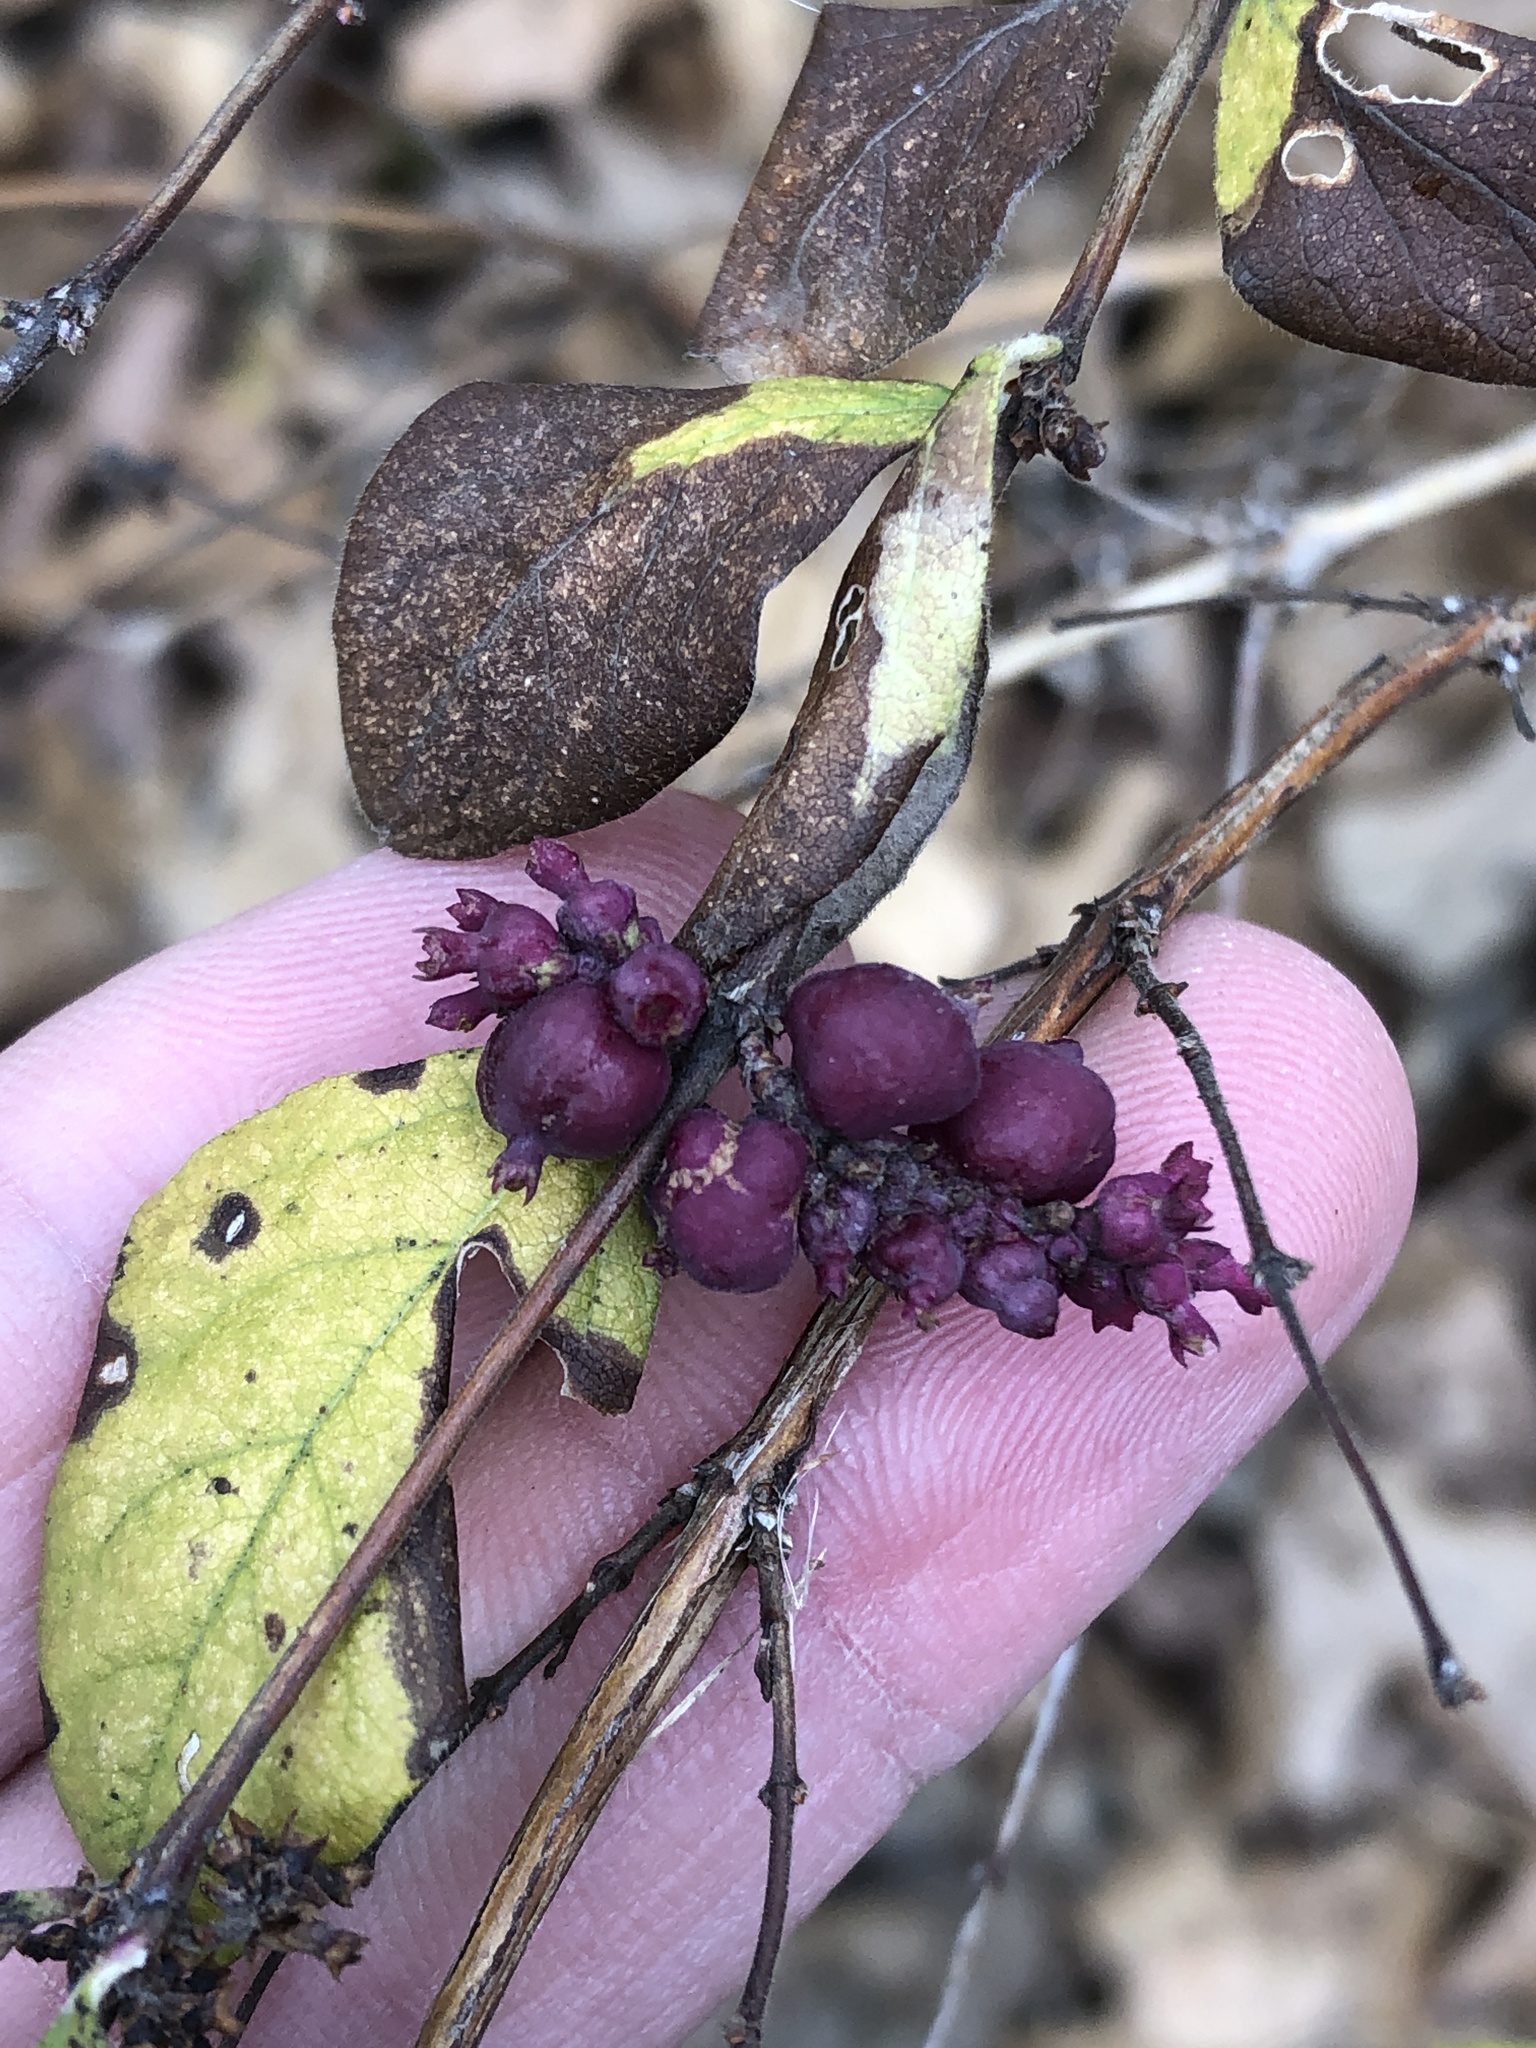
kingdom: Plantae
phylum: Tracheophyta
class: Magnoliopsida
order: Dipsacales
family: Caprifoliaceae
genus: Symphoricarpos
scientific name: Symphoricarpos orbiculatus
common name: Coralberry
